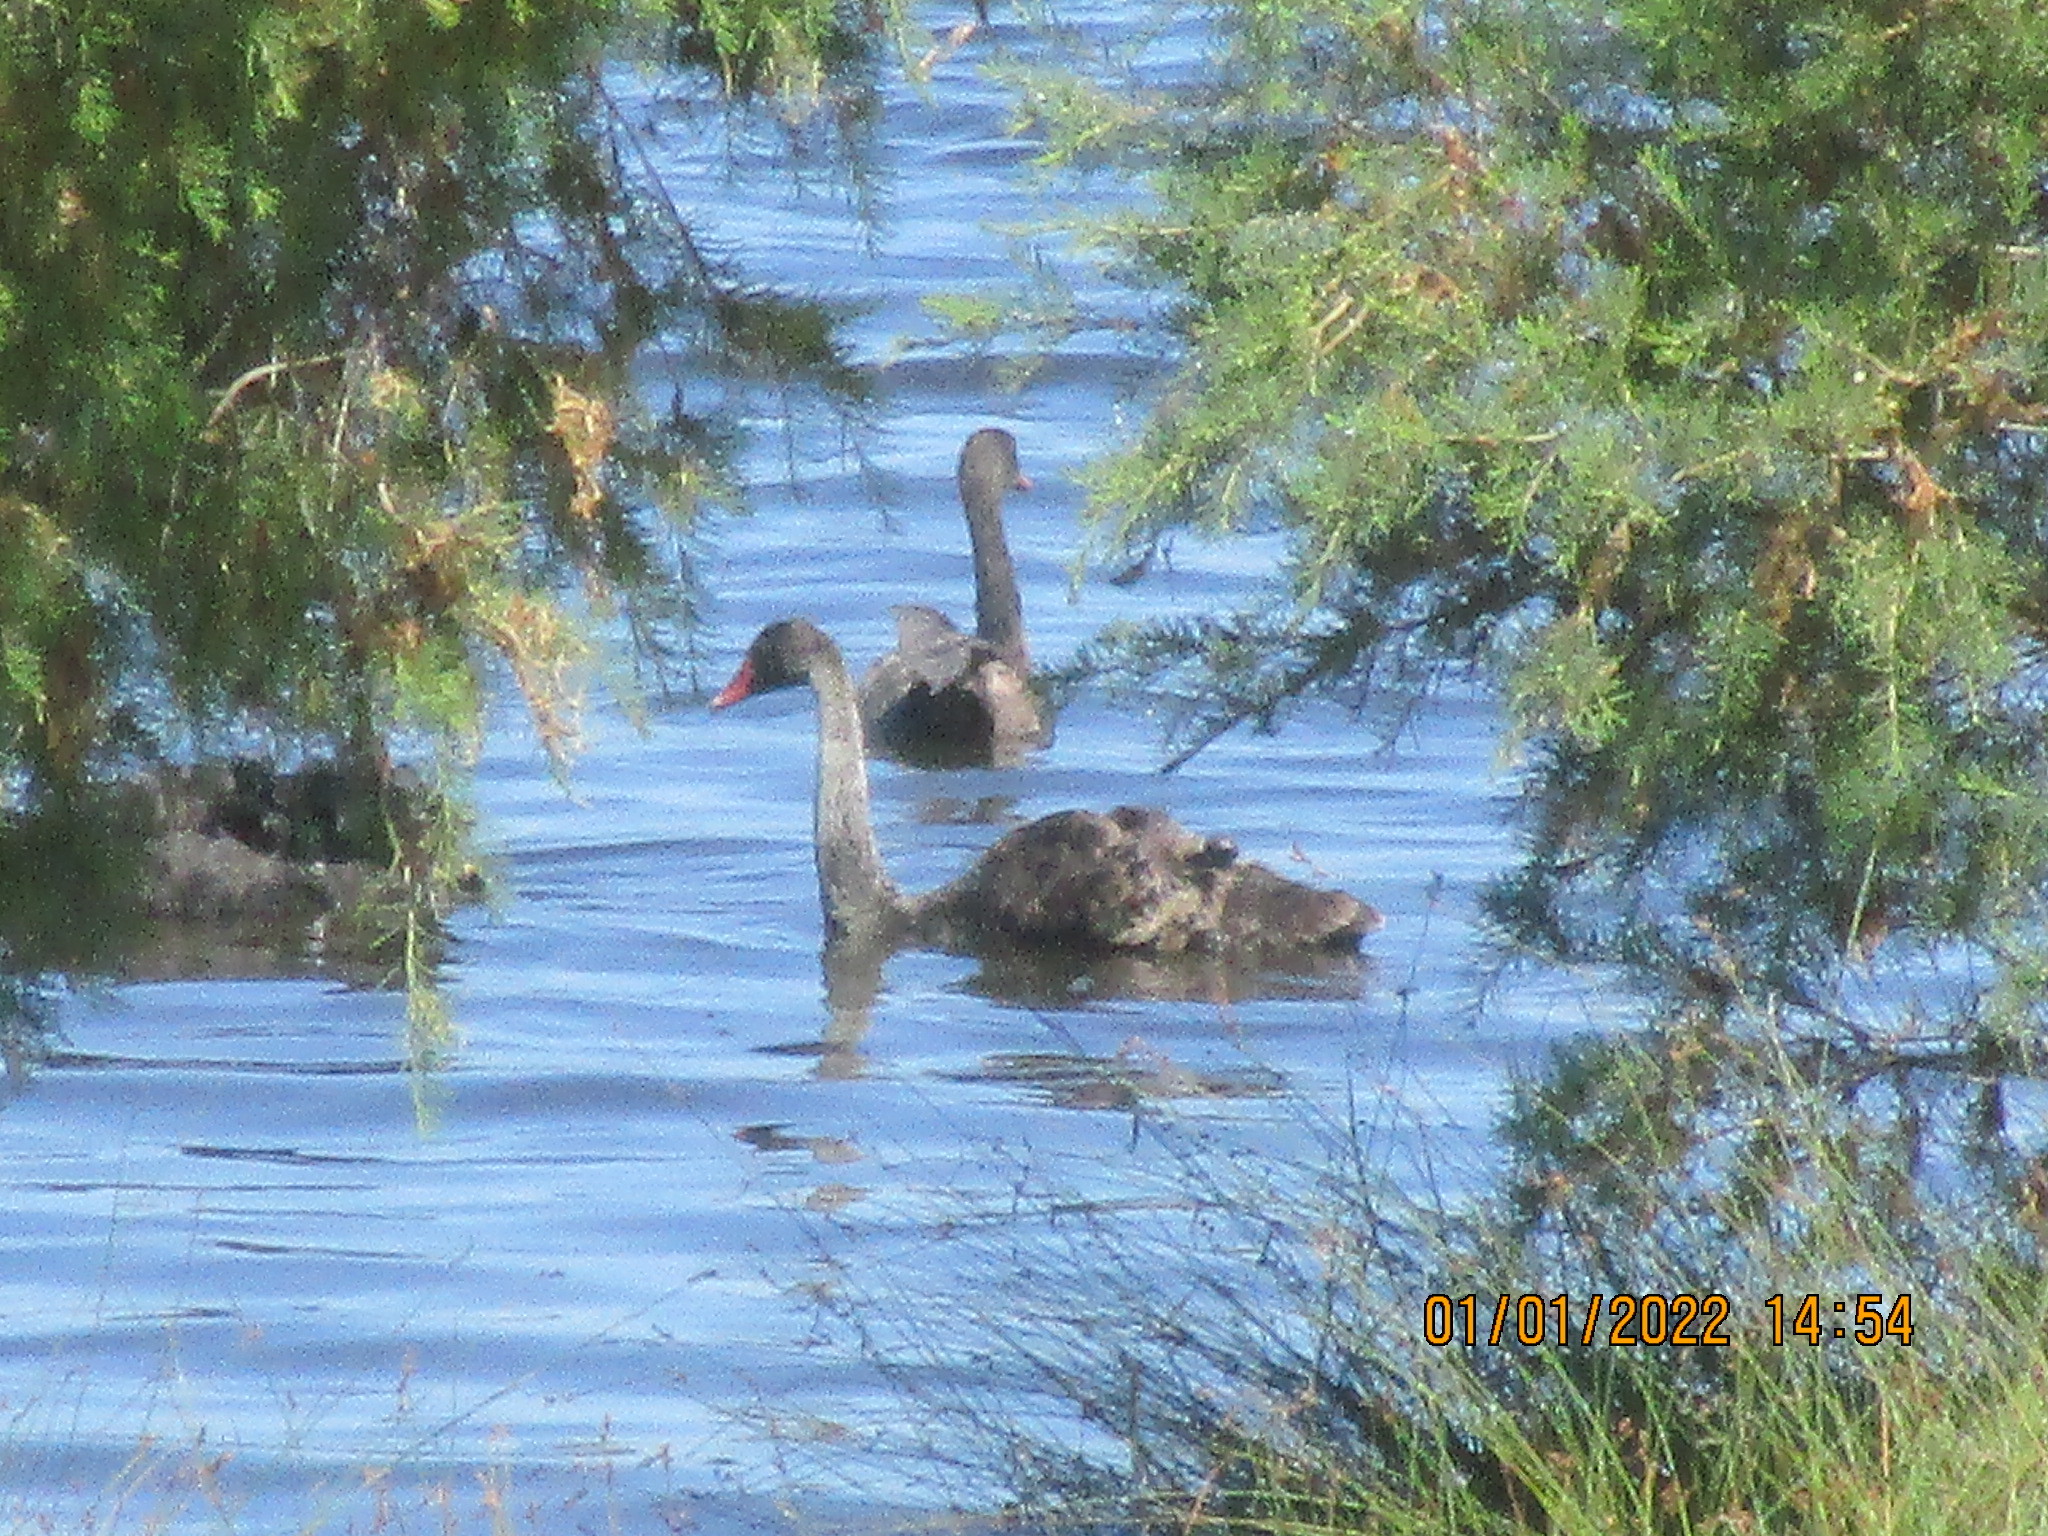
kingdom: Animalia
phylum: Chordata
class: Aves
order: Anseriformes
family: Anatidae
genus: Cygnus
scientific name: Cygnus atratus
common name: Black swan
